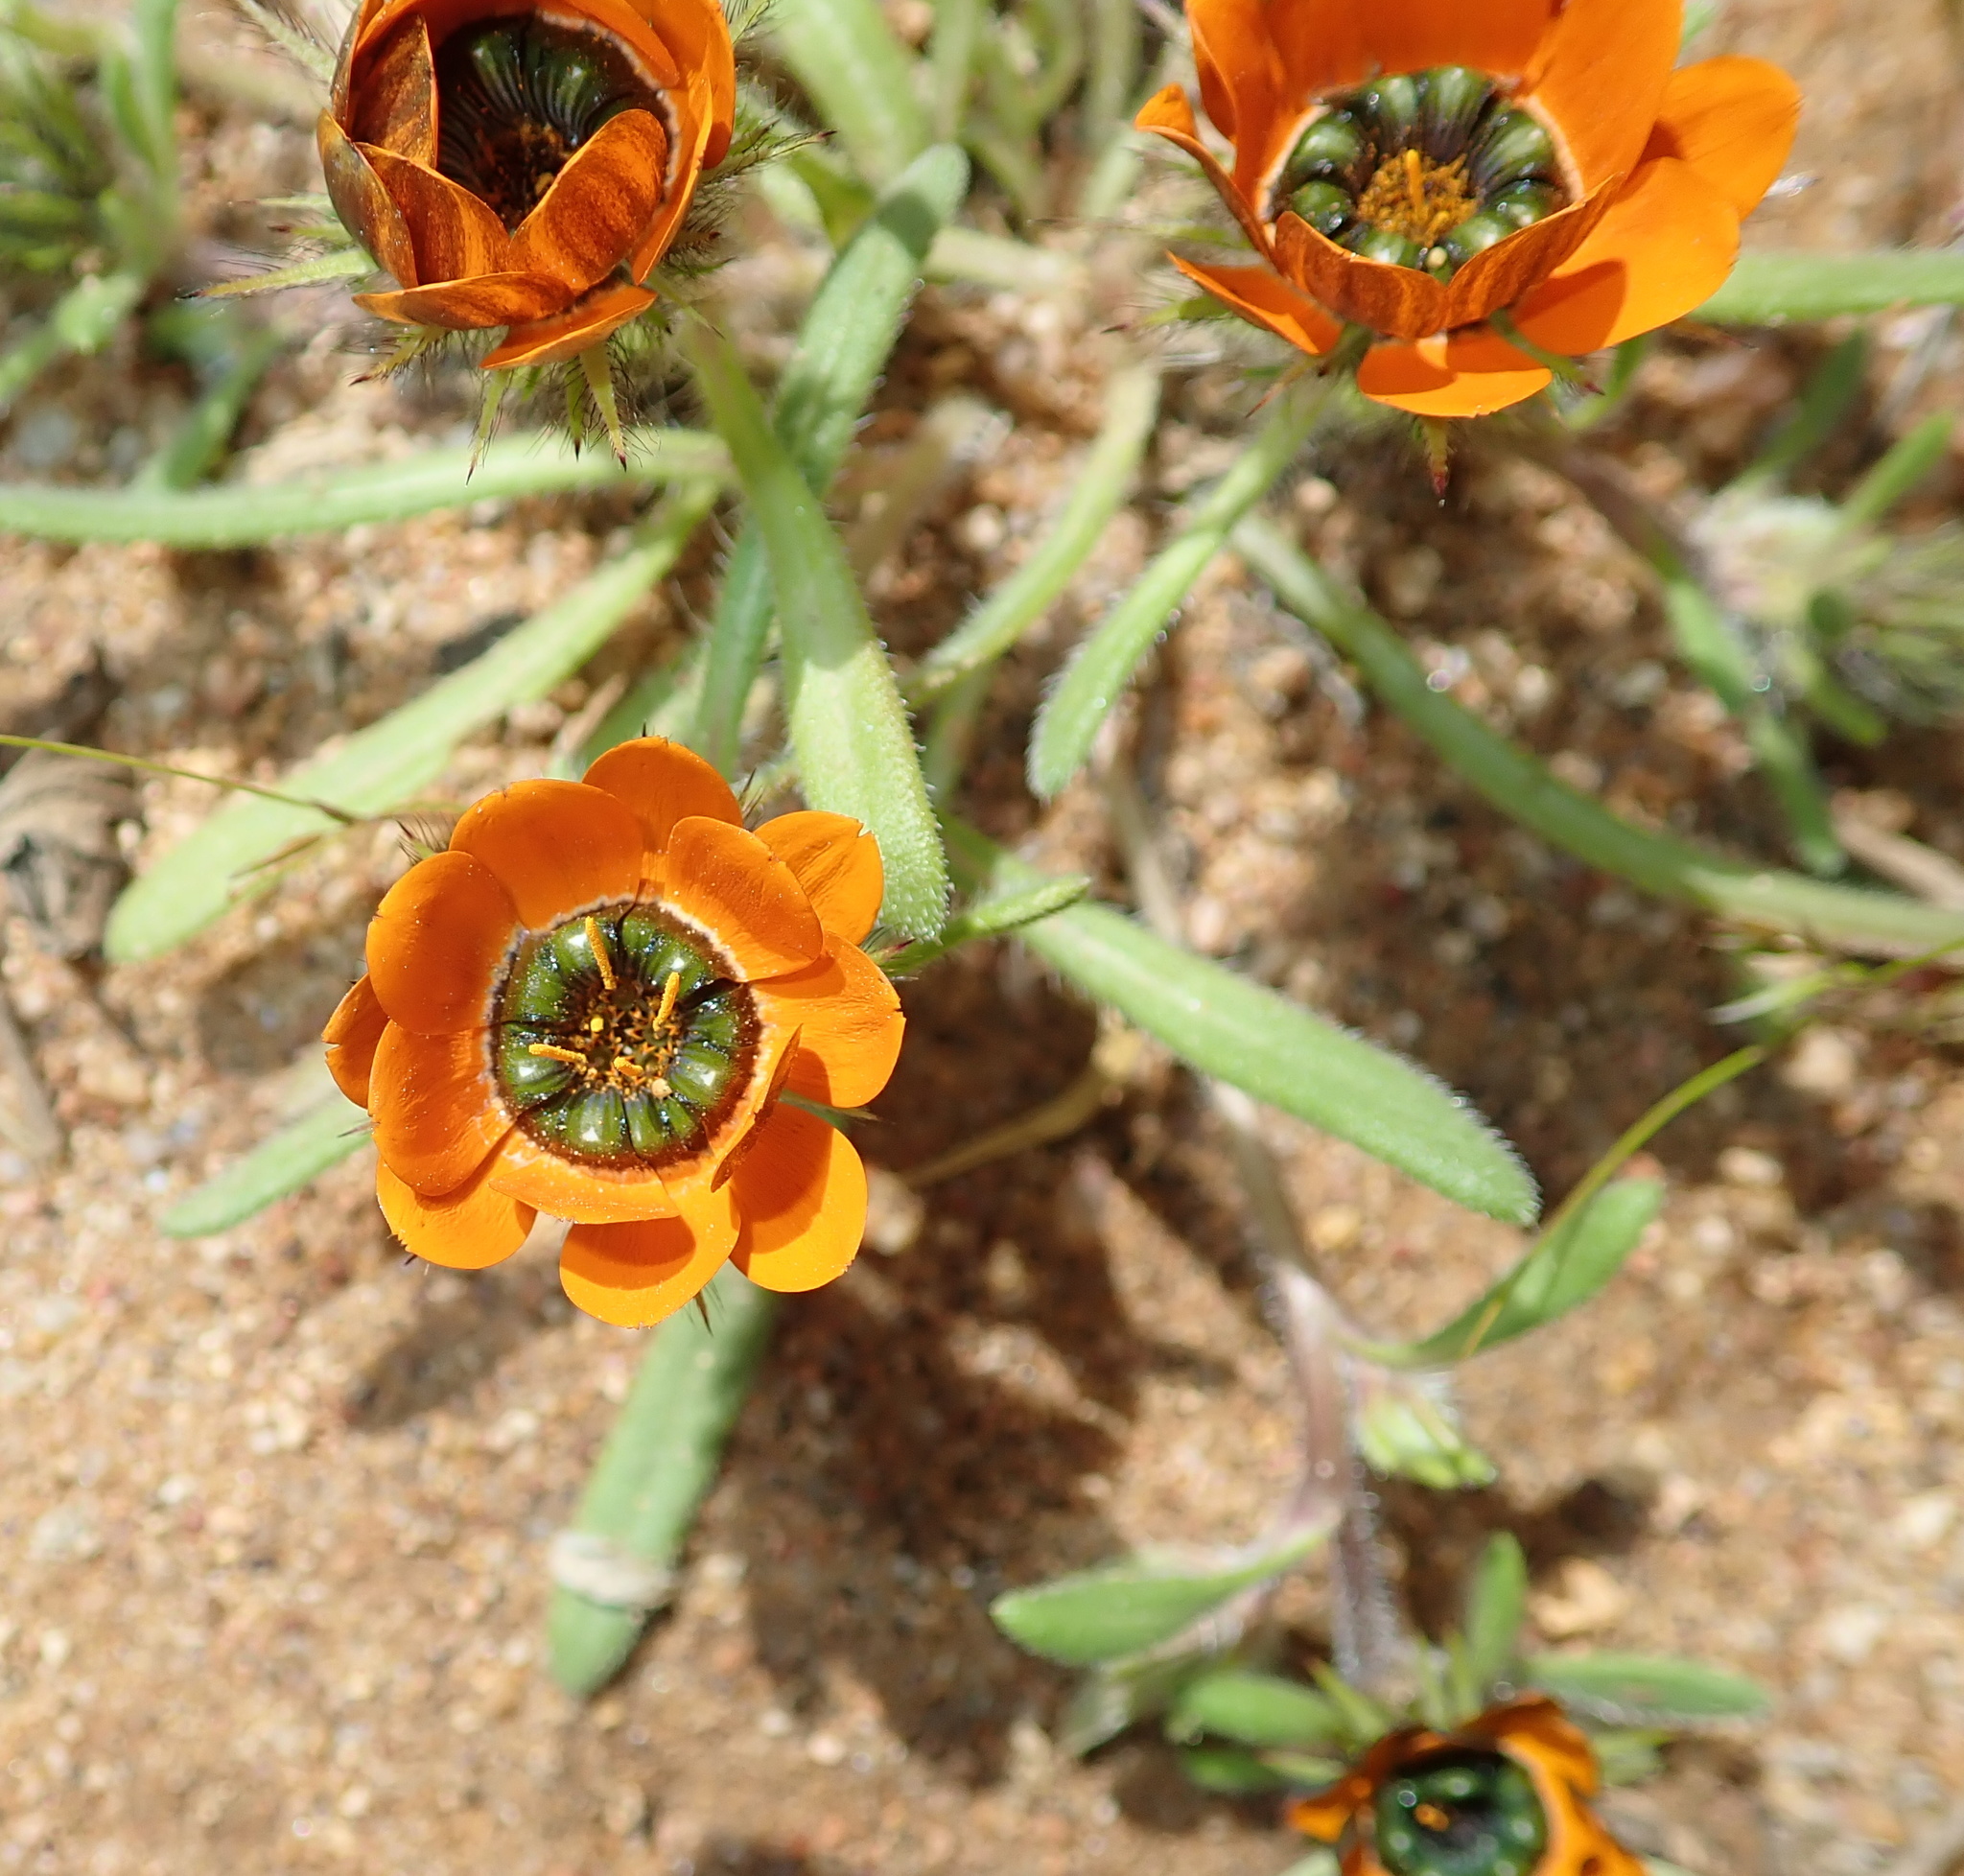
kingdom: Plantae
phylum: Tracheophyta
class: Magnoliopsida
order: Asterales
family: Asteraceae
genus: Gorteria
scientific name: Gorteria diffusa
